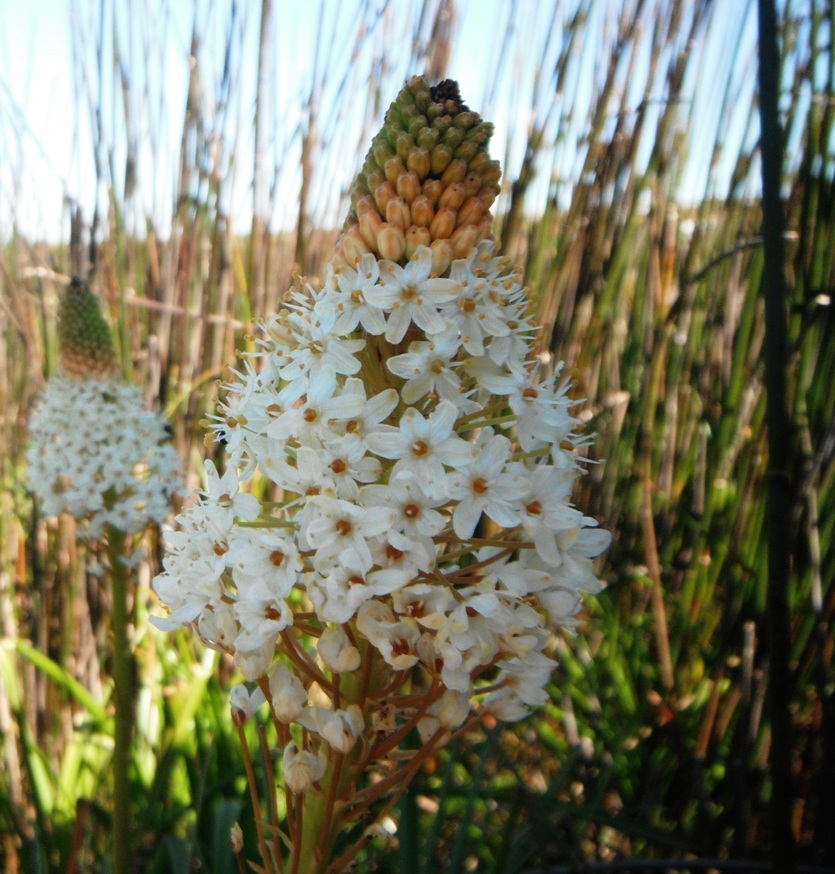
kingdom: Plantae
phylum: Tracheophyta
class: Liliopsida
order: Asparagales
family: Asphodelaceae
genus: Bulbinella
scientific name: Bulbinella nutans
